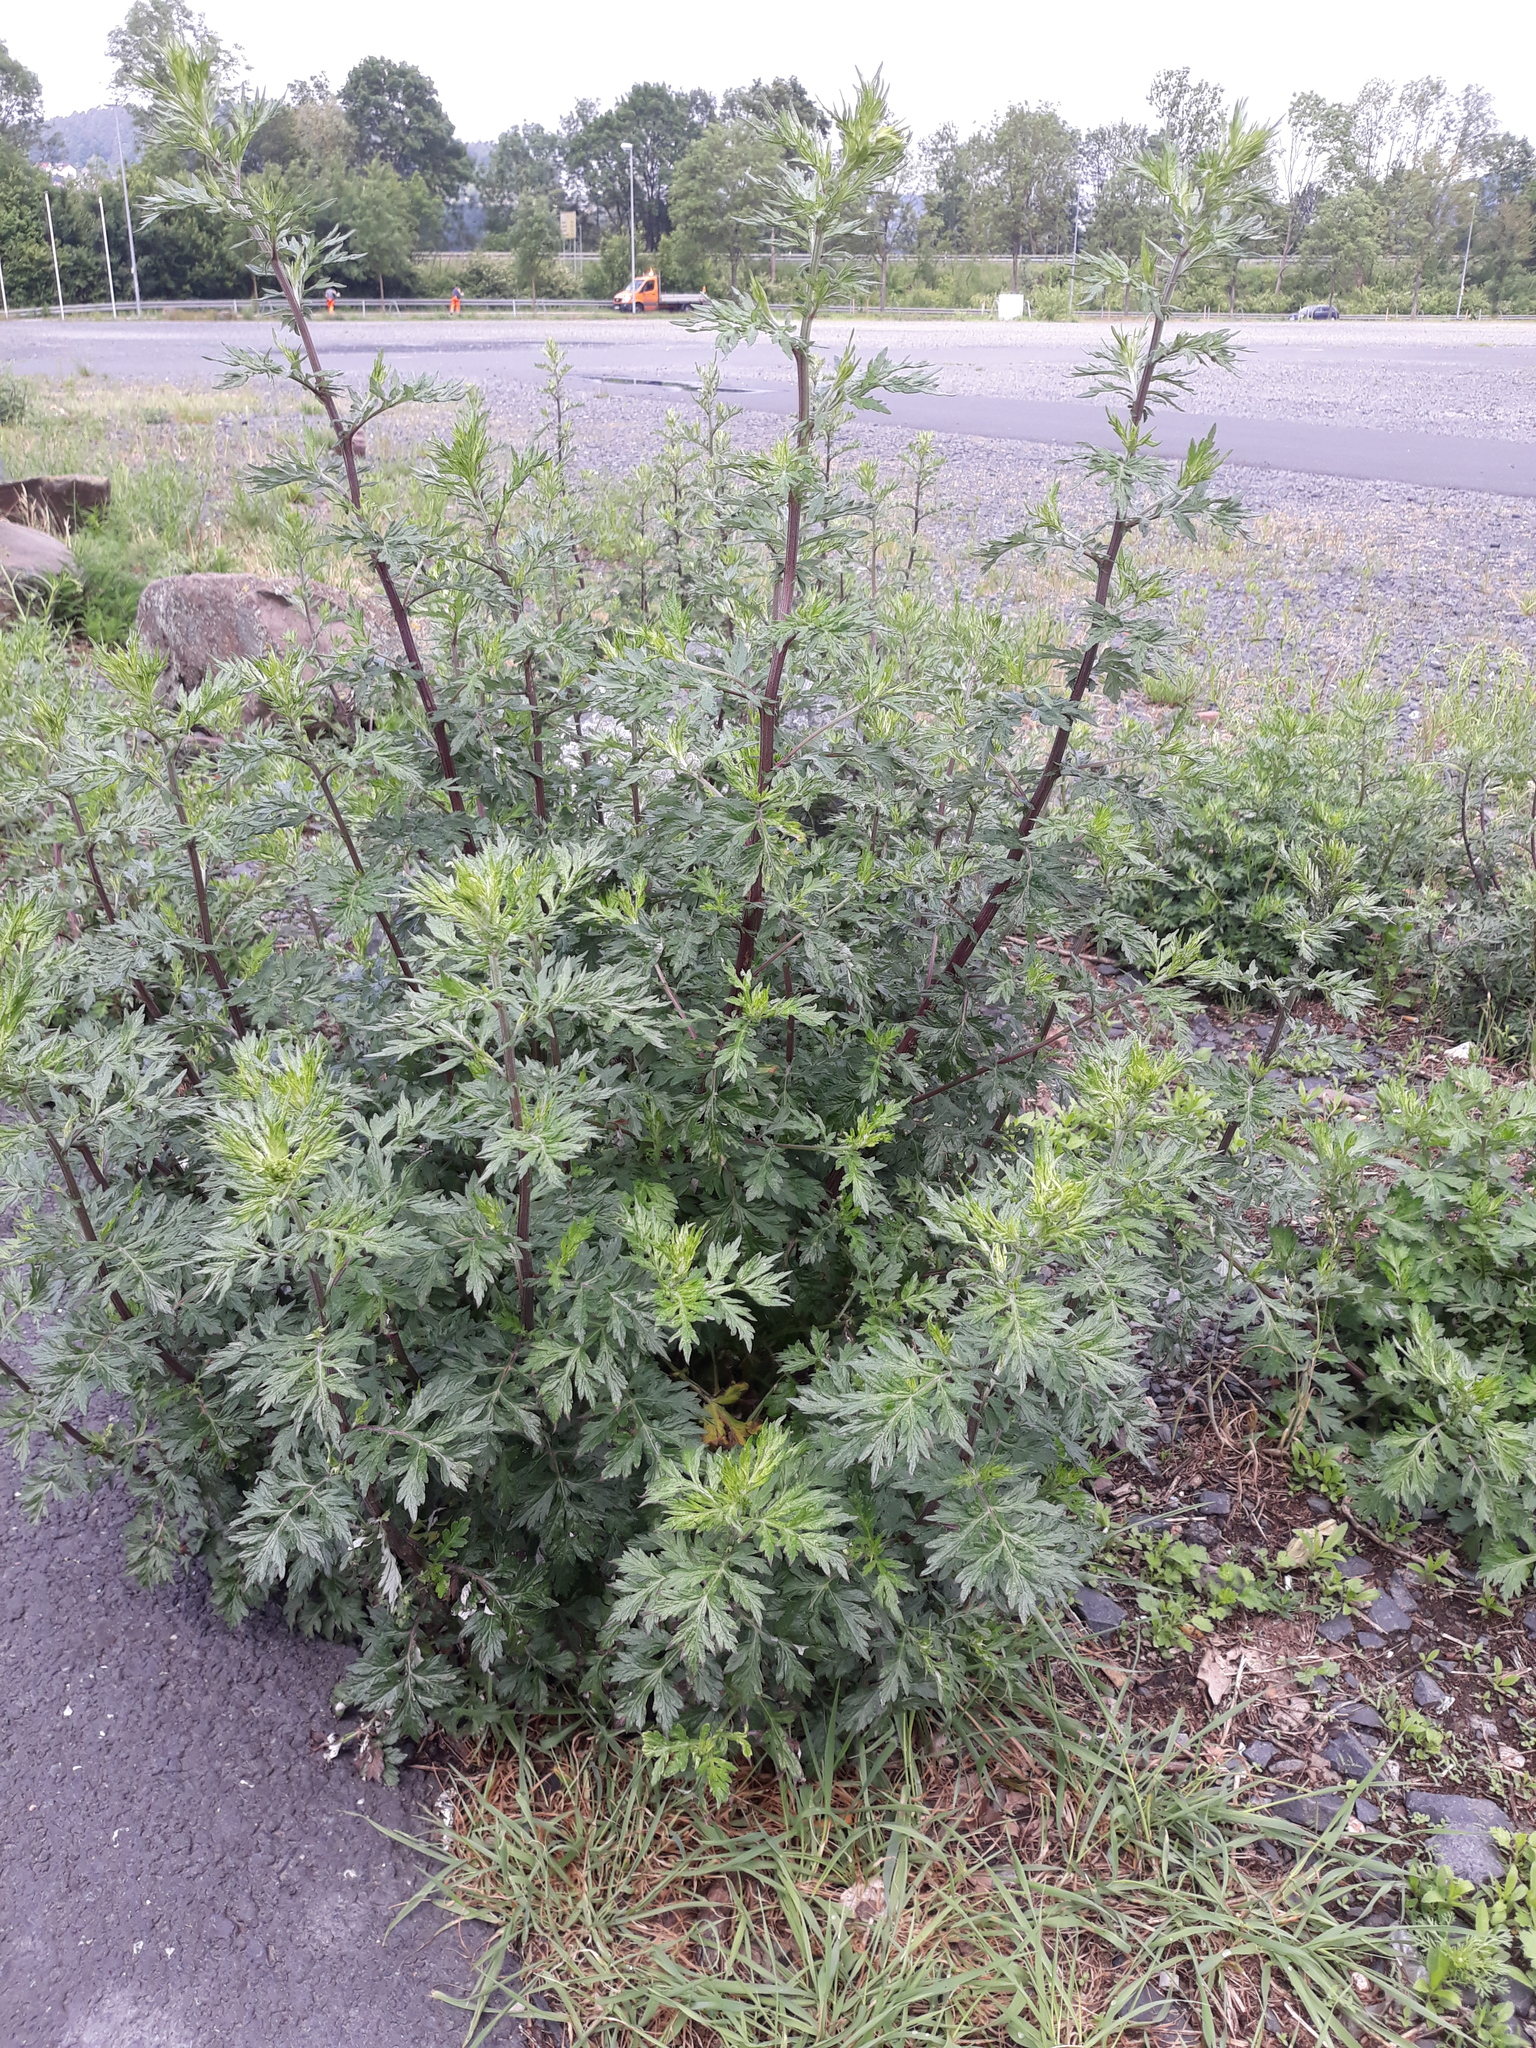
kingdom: Plantae
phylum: Tracheophyta
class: Magnoliopsida
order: Asterales
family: Asteraceae
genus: Artemisia
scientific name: Artemisia vulgaris
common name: Mugwort
